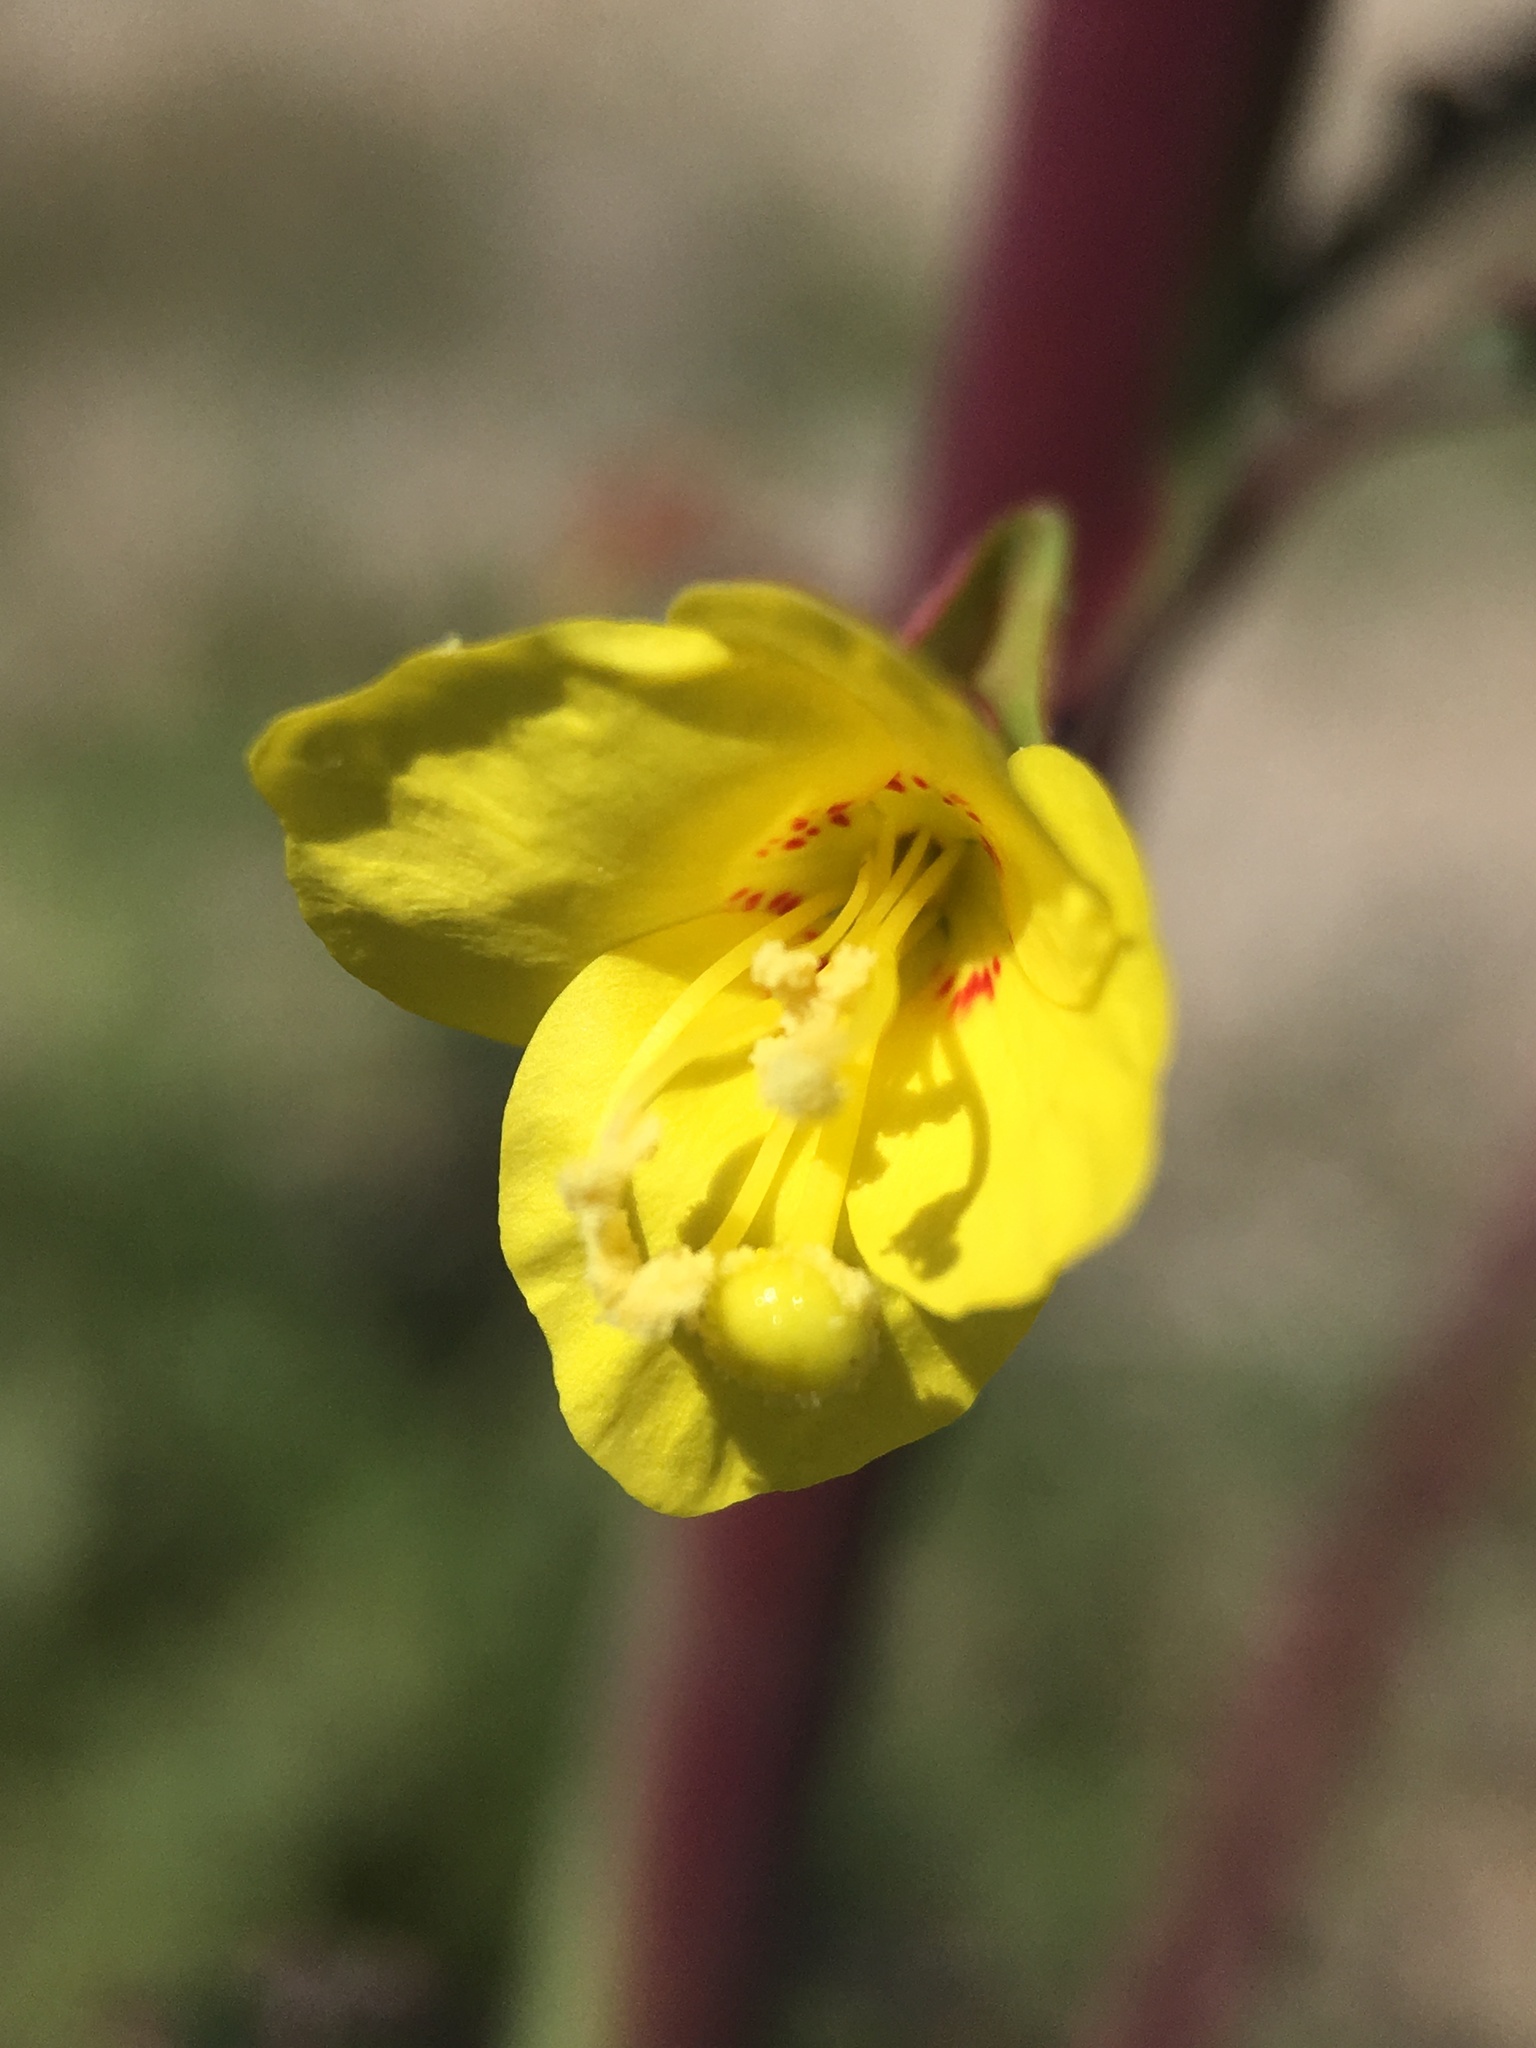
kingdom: Plantae
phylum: Tracheophyta
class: Magnoliopsida
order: Myrtales
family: Onagraceae
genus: Eulobus
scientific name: Eulobus californicus
